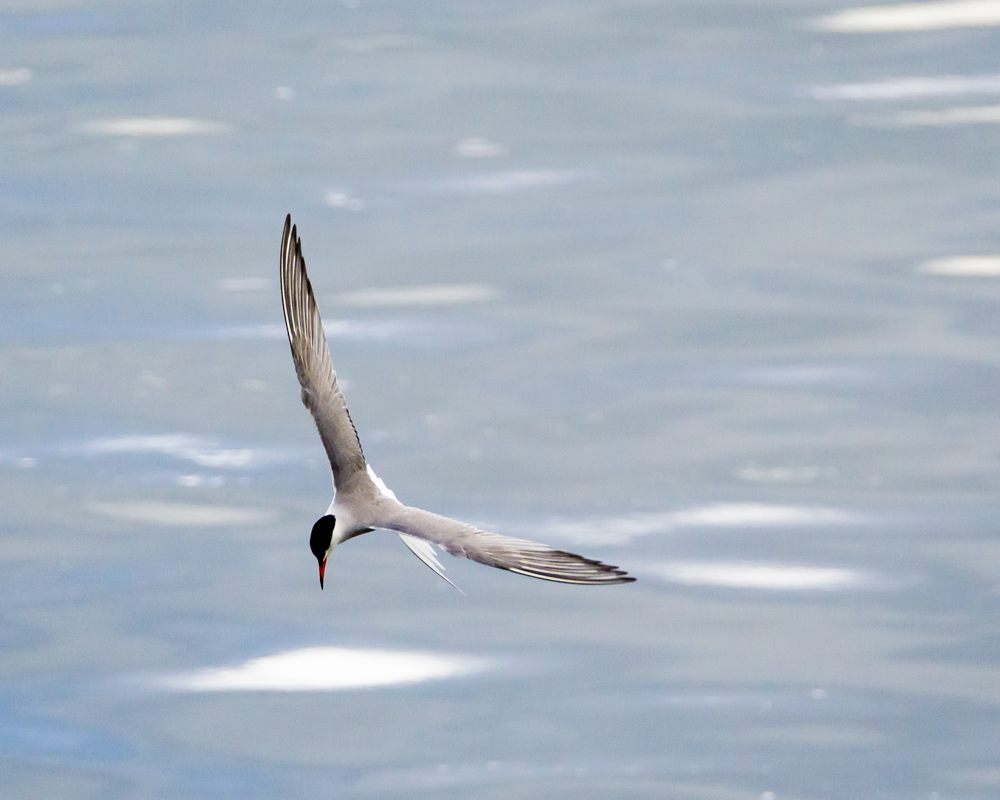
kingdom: Animalia
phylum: Chordata
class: Aves
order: Charadriiformes
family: Laridae
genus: Sterna
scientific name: Sterna hirundo
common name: Common tern
